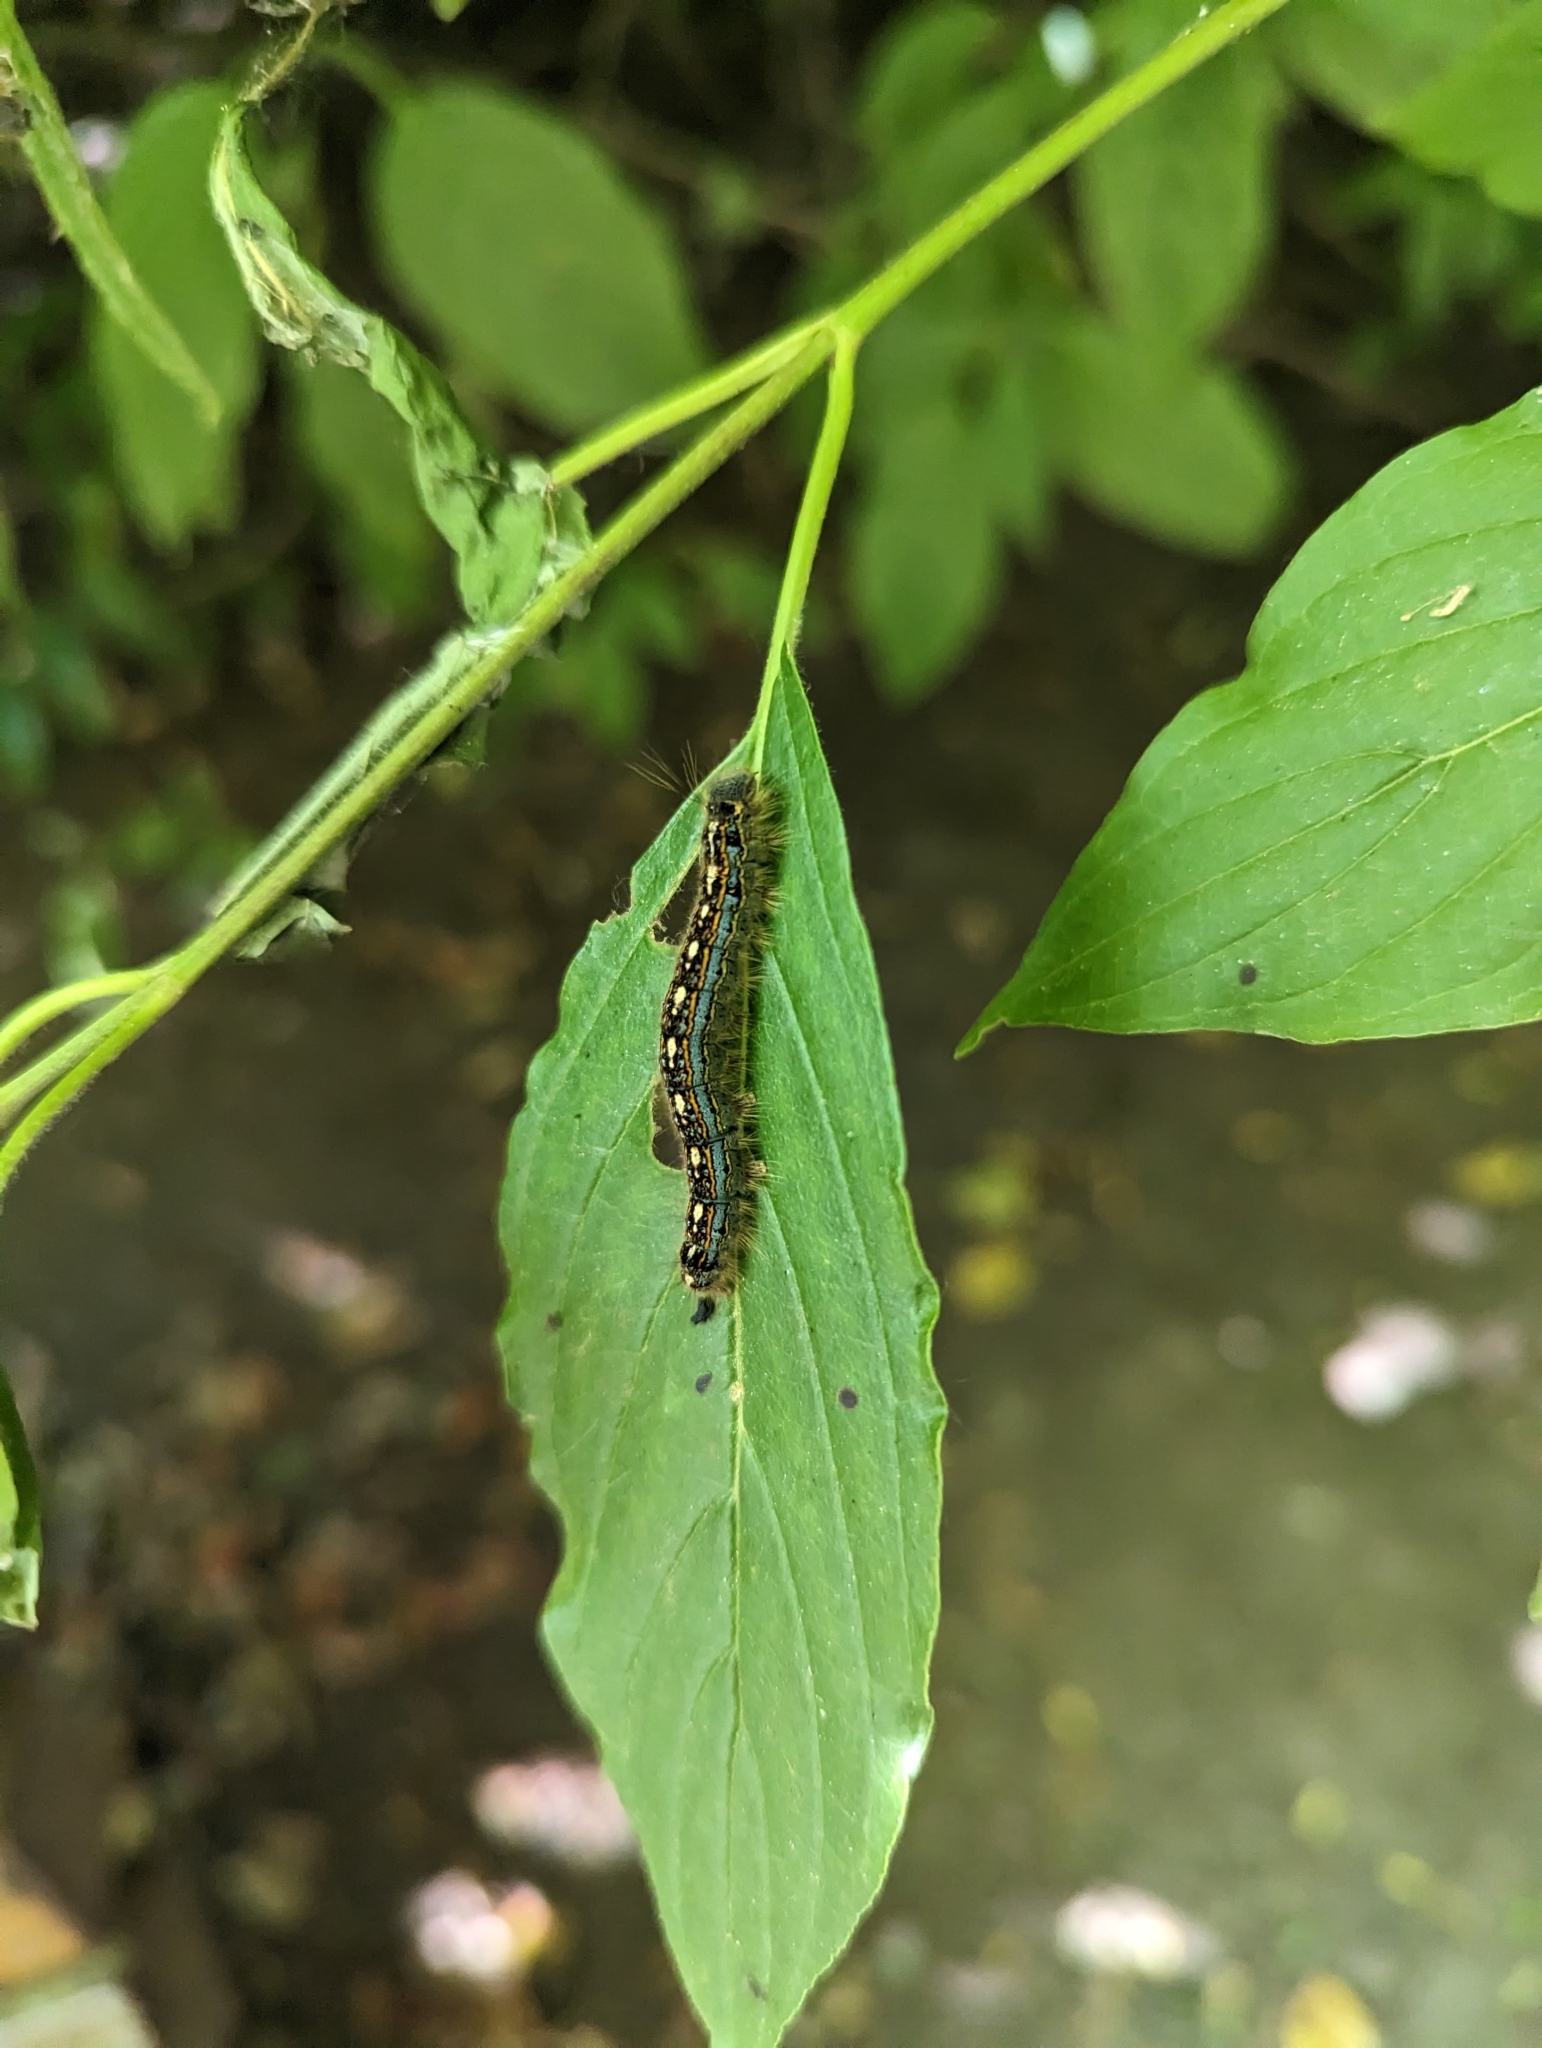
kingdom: Animalia
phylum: Arthropoda
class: Insecta
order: Lepidoptera
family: Lasiocampidae
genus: Malacosoma
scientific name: Malacosoma disstria
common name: Forest tent caterpillar
